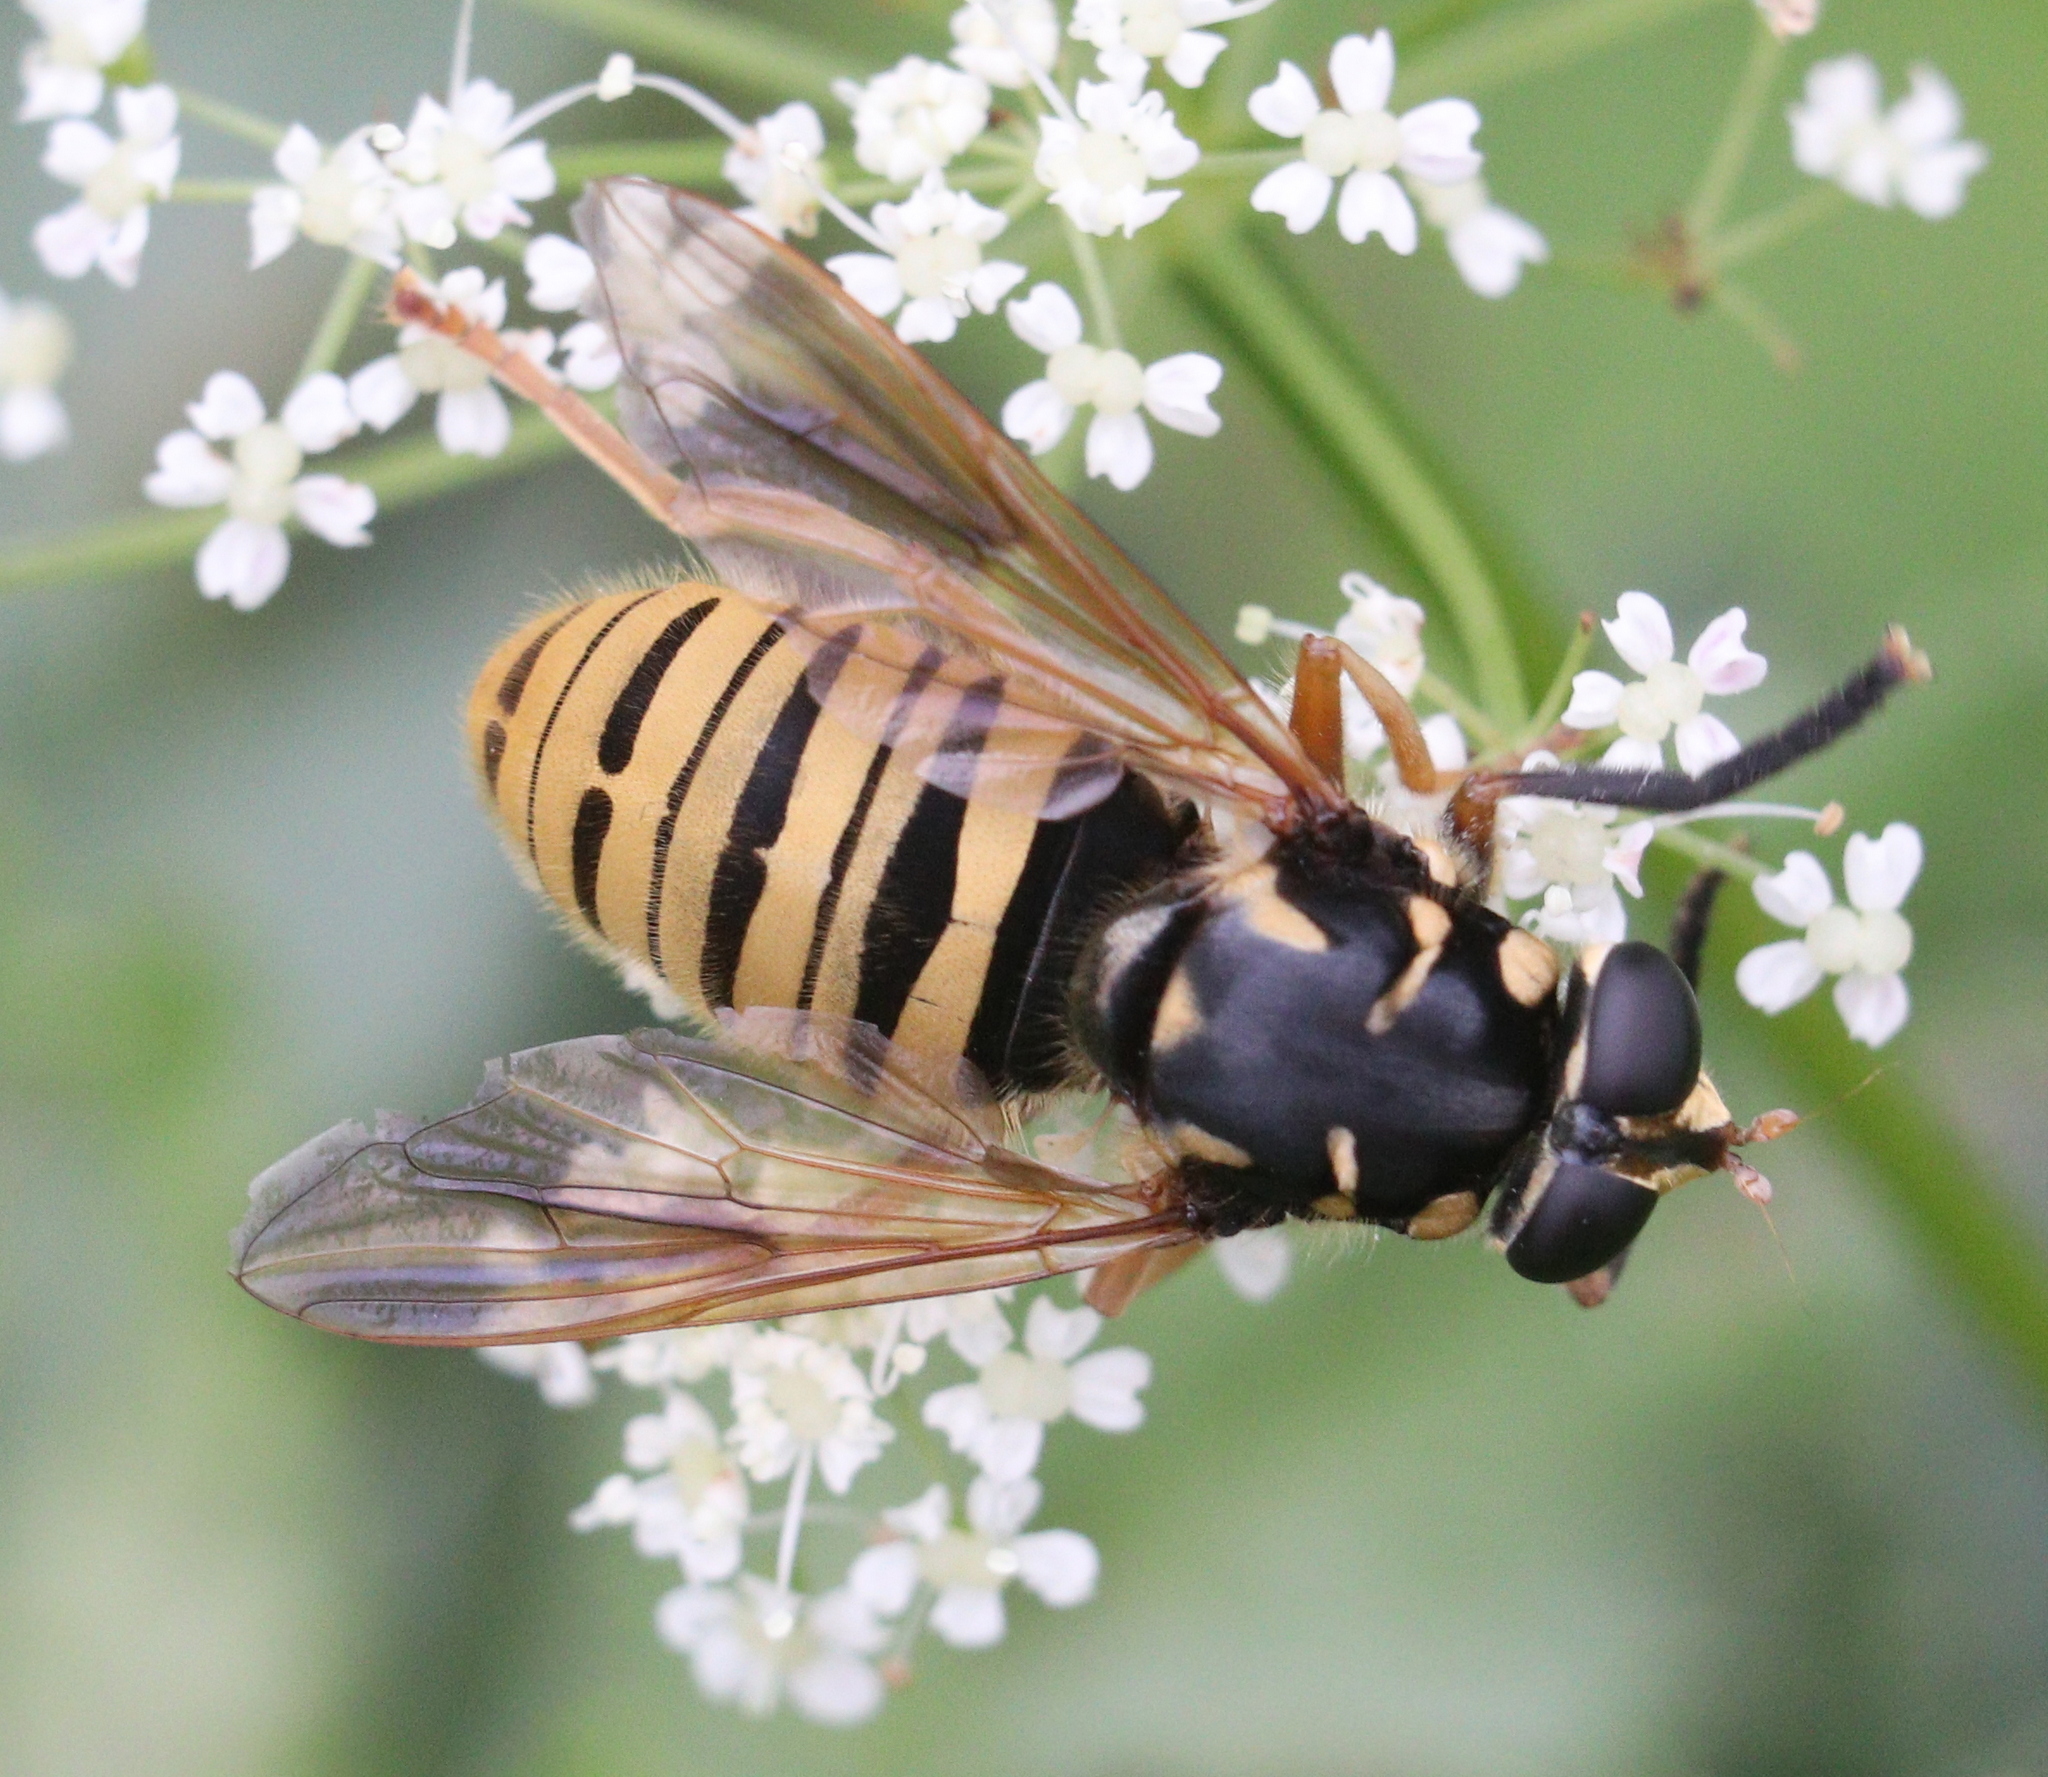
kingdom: Animalia
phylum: Arthropoda
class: Insecta
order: Diptera
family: Syrphidae
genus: Temnostoma
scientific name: Temnostoma vespiforme
